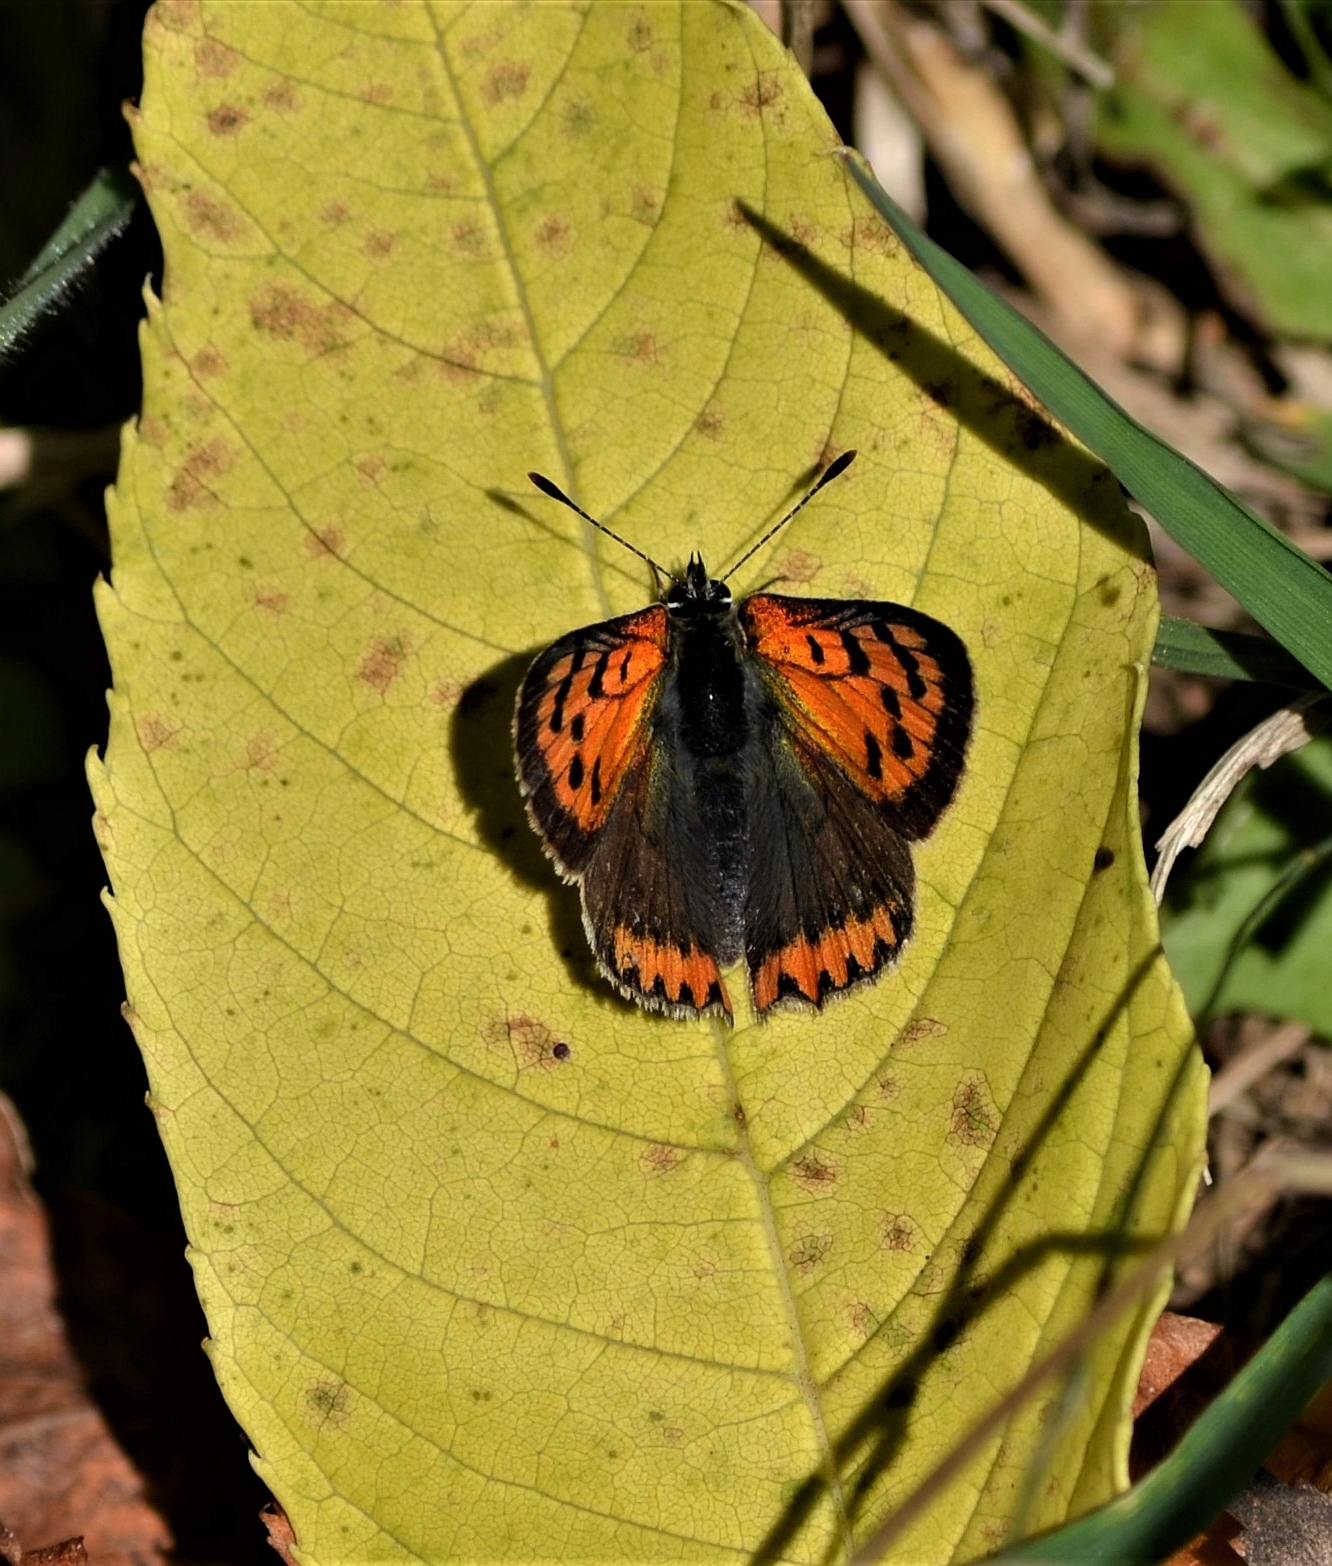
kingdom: Animalia
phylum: Arthropoda
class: Insecta
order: Lepidoptera
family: Lycaenidae
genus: Lycaena
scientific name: Lycaena phlaeas
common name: Small copper
